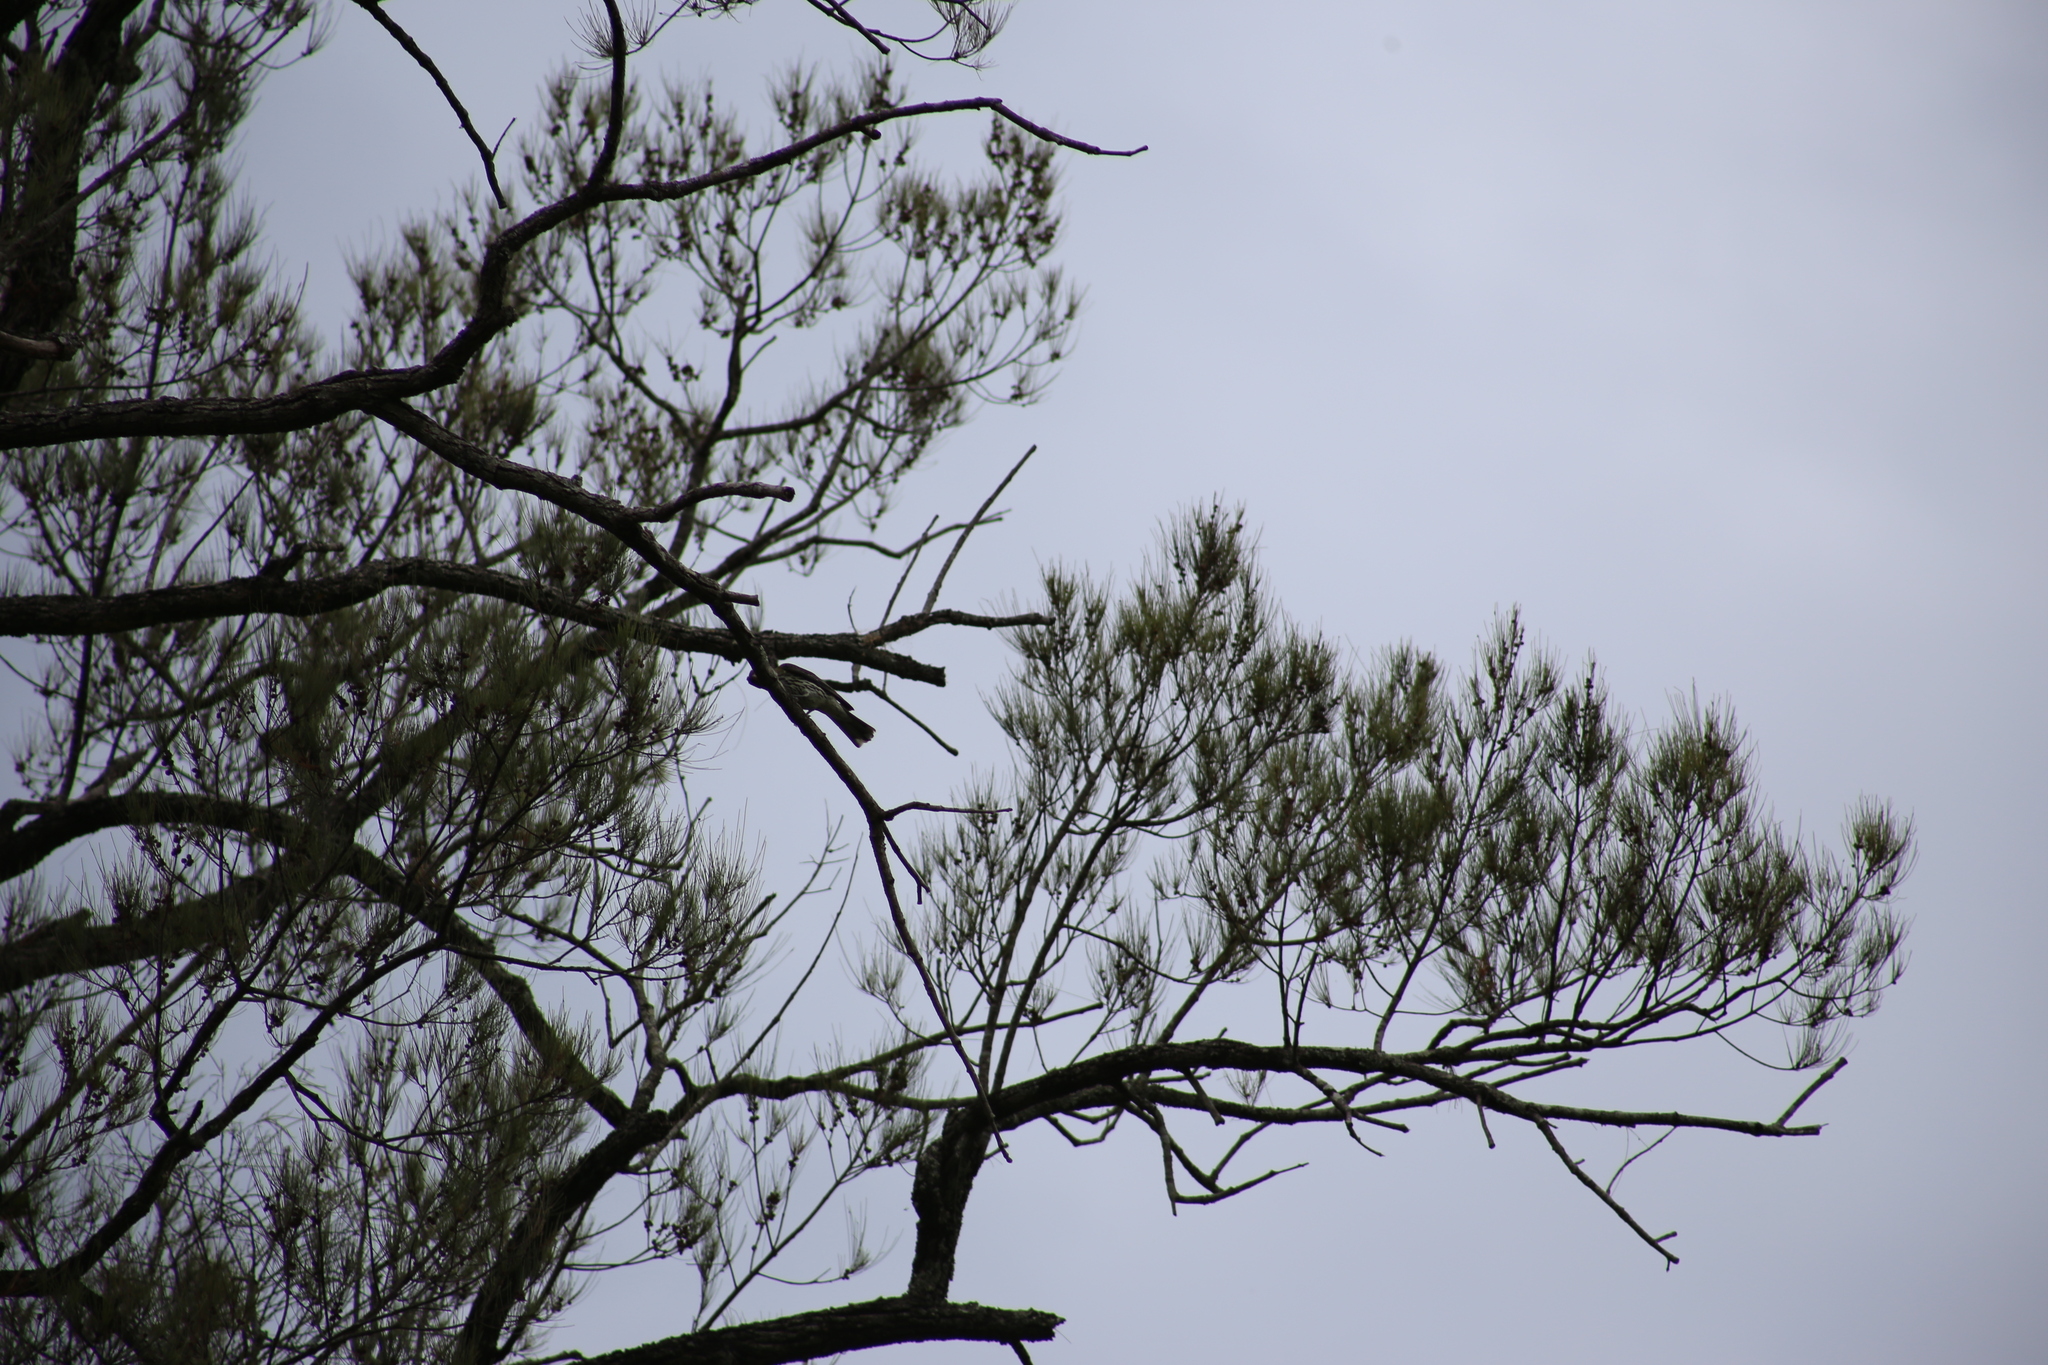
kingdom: Animalia
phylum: Chordata
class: Aves
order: Passeriformes
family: Oriolidae
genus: Oriolus
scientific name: Oriolus sagittatus
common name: Olive-backed oriole
